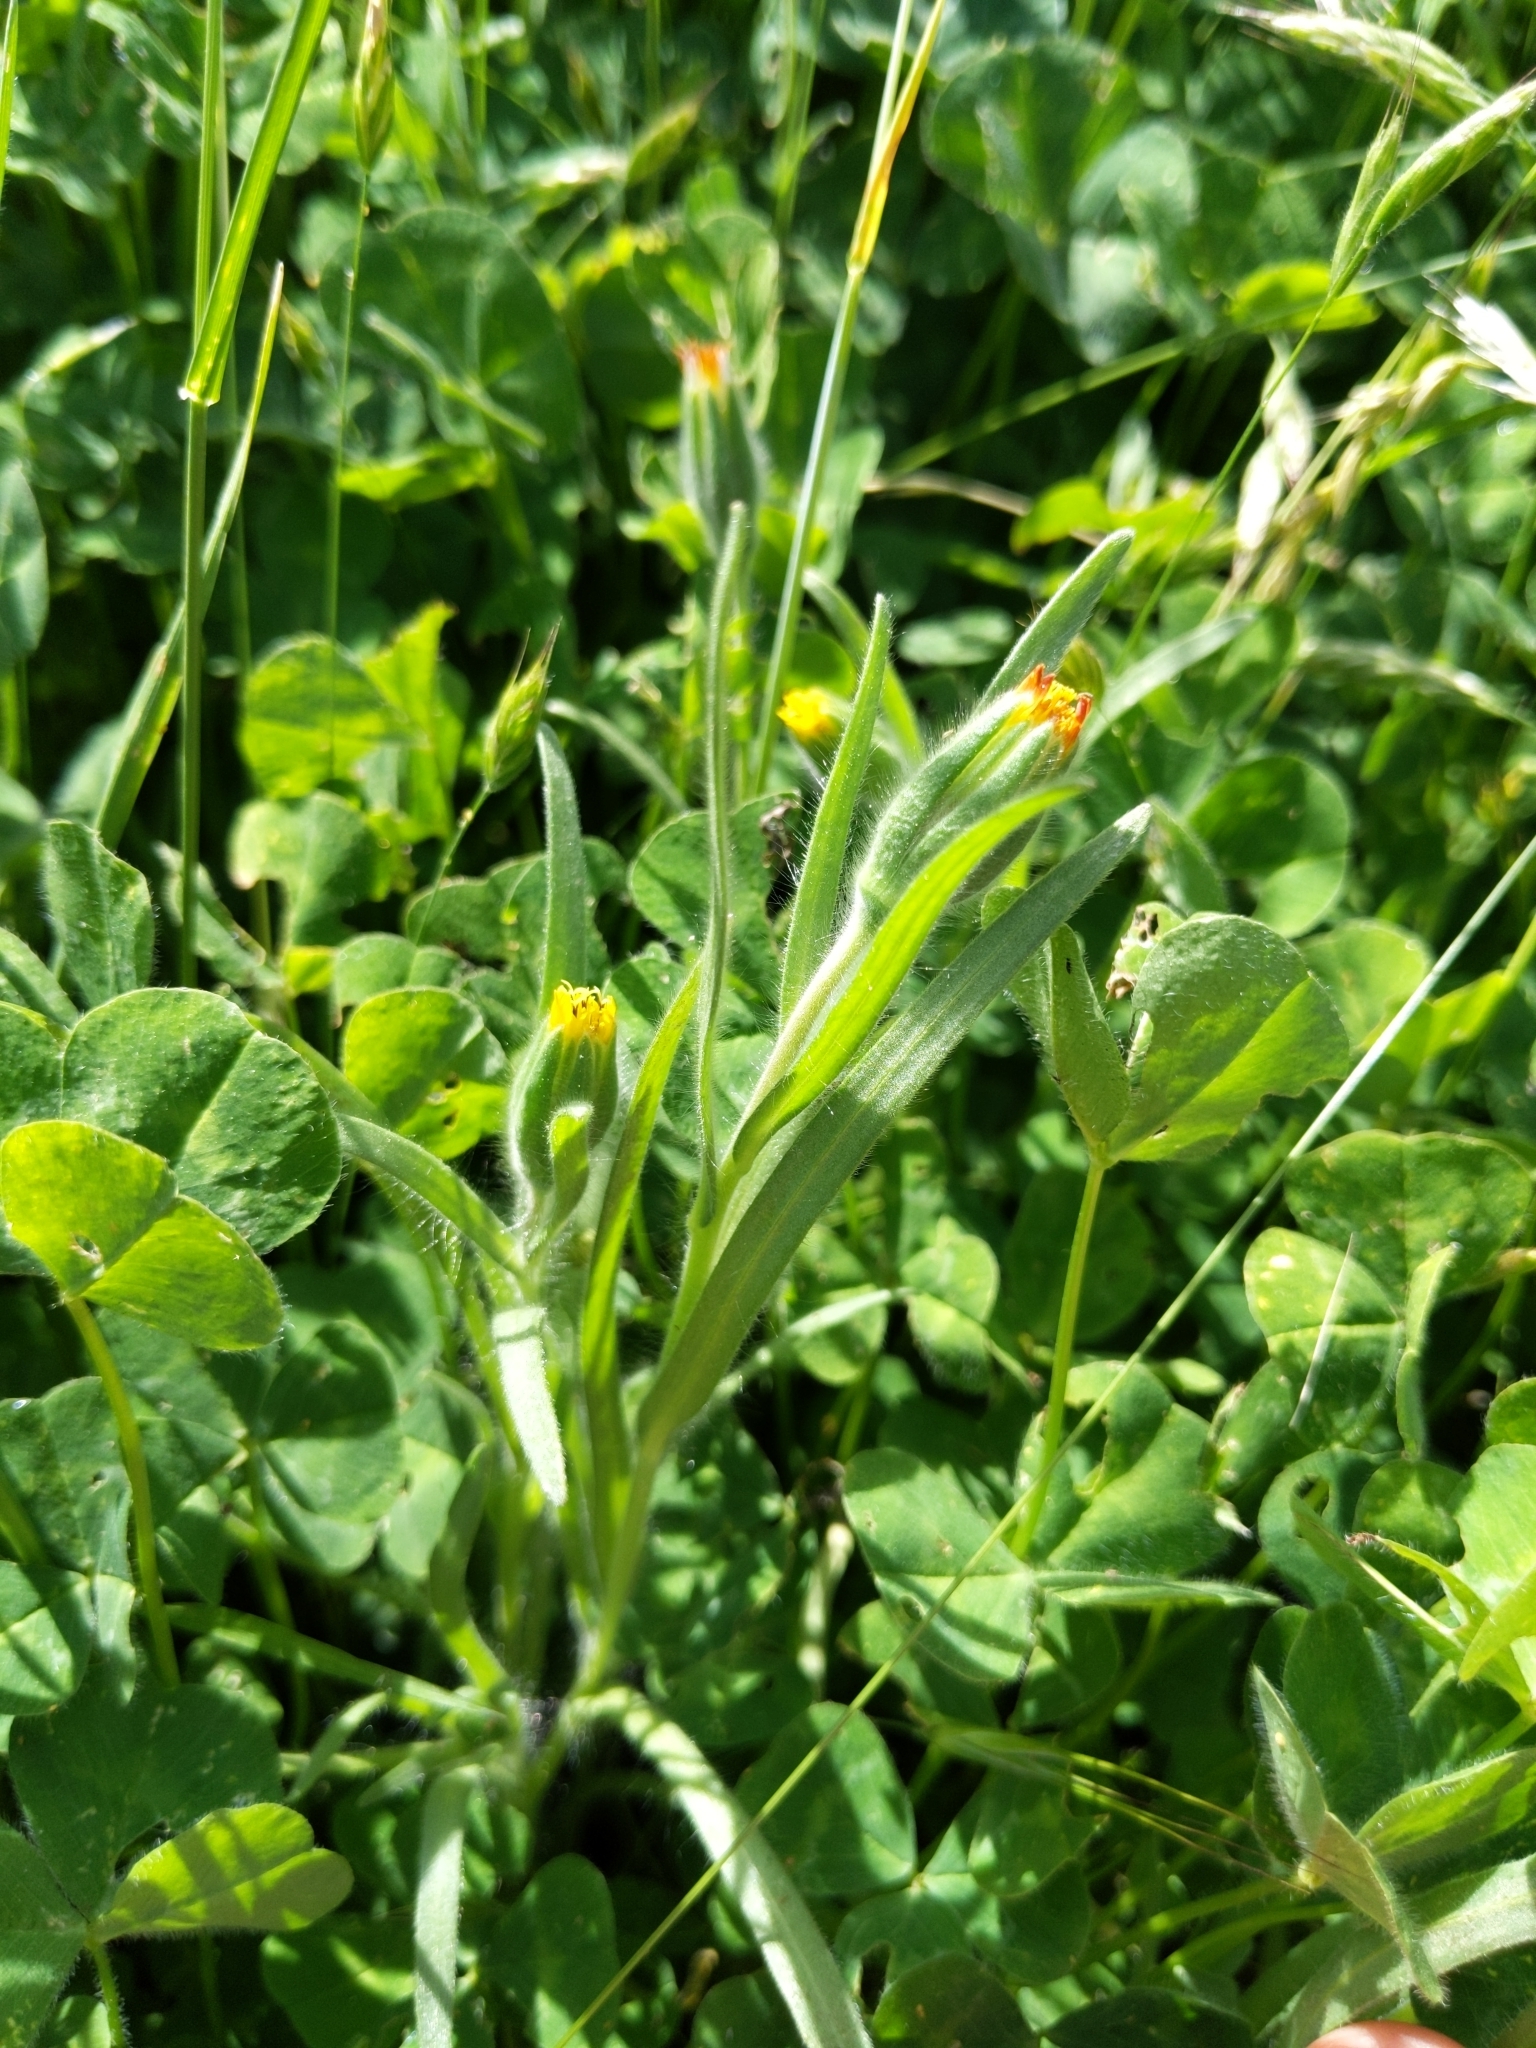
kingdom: Plantae
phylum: Tracheophyta
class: Magnoliopsida
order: Asterales
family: Asteraceae
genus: Achyrachaena
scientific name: Achyrachaena mollis
